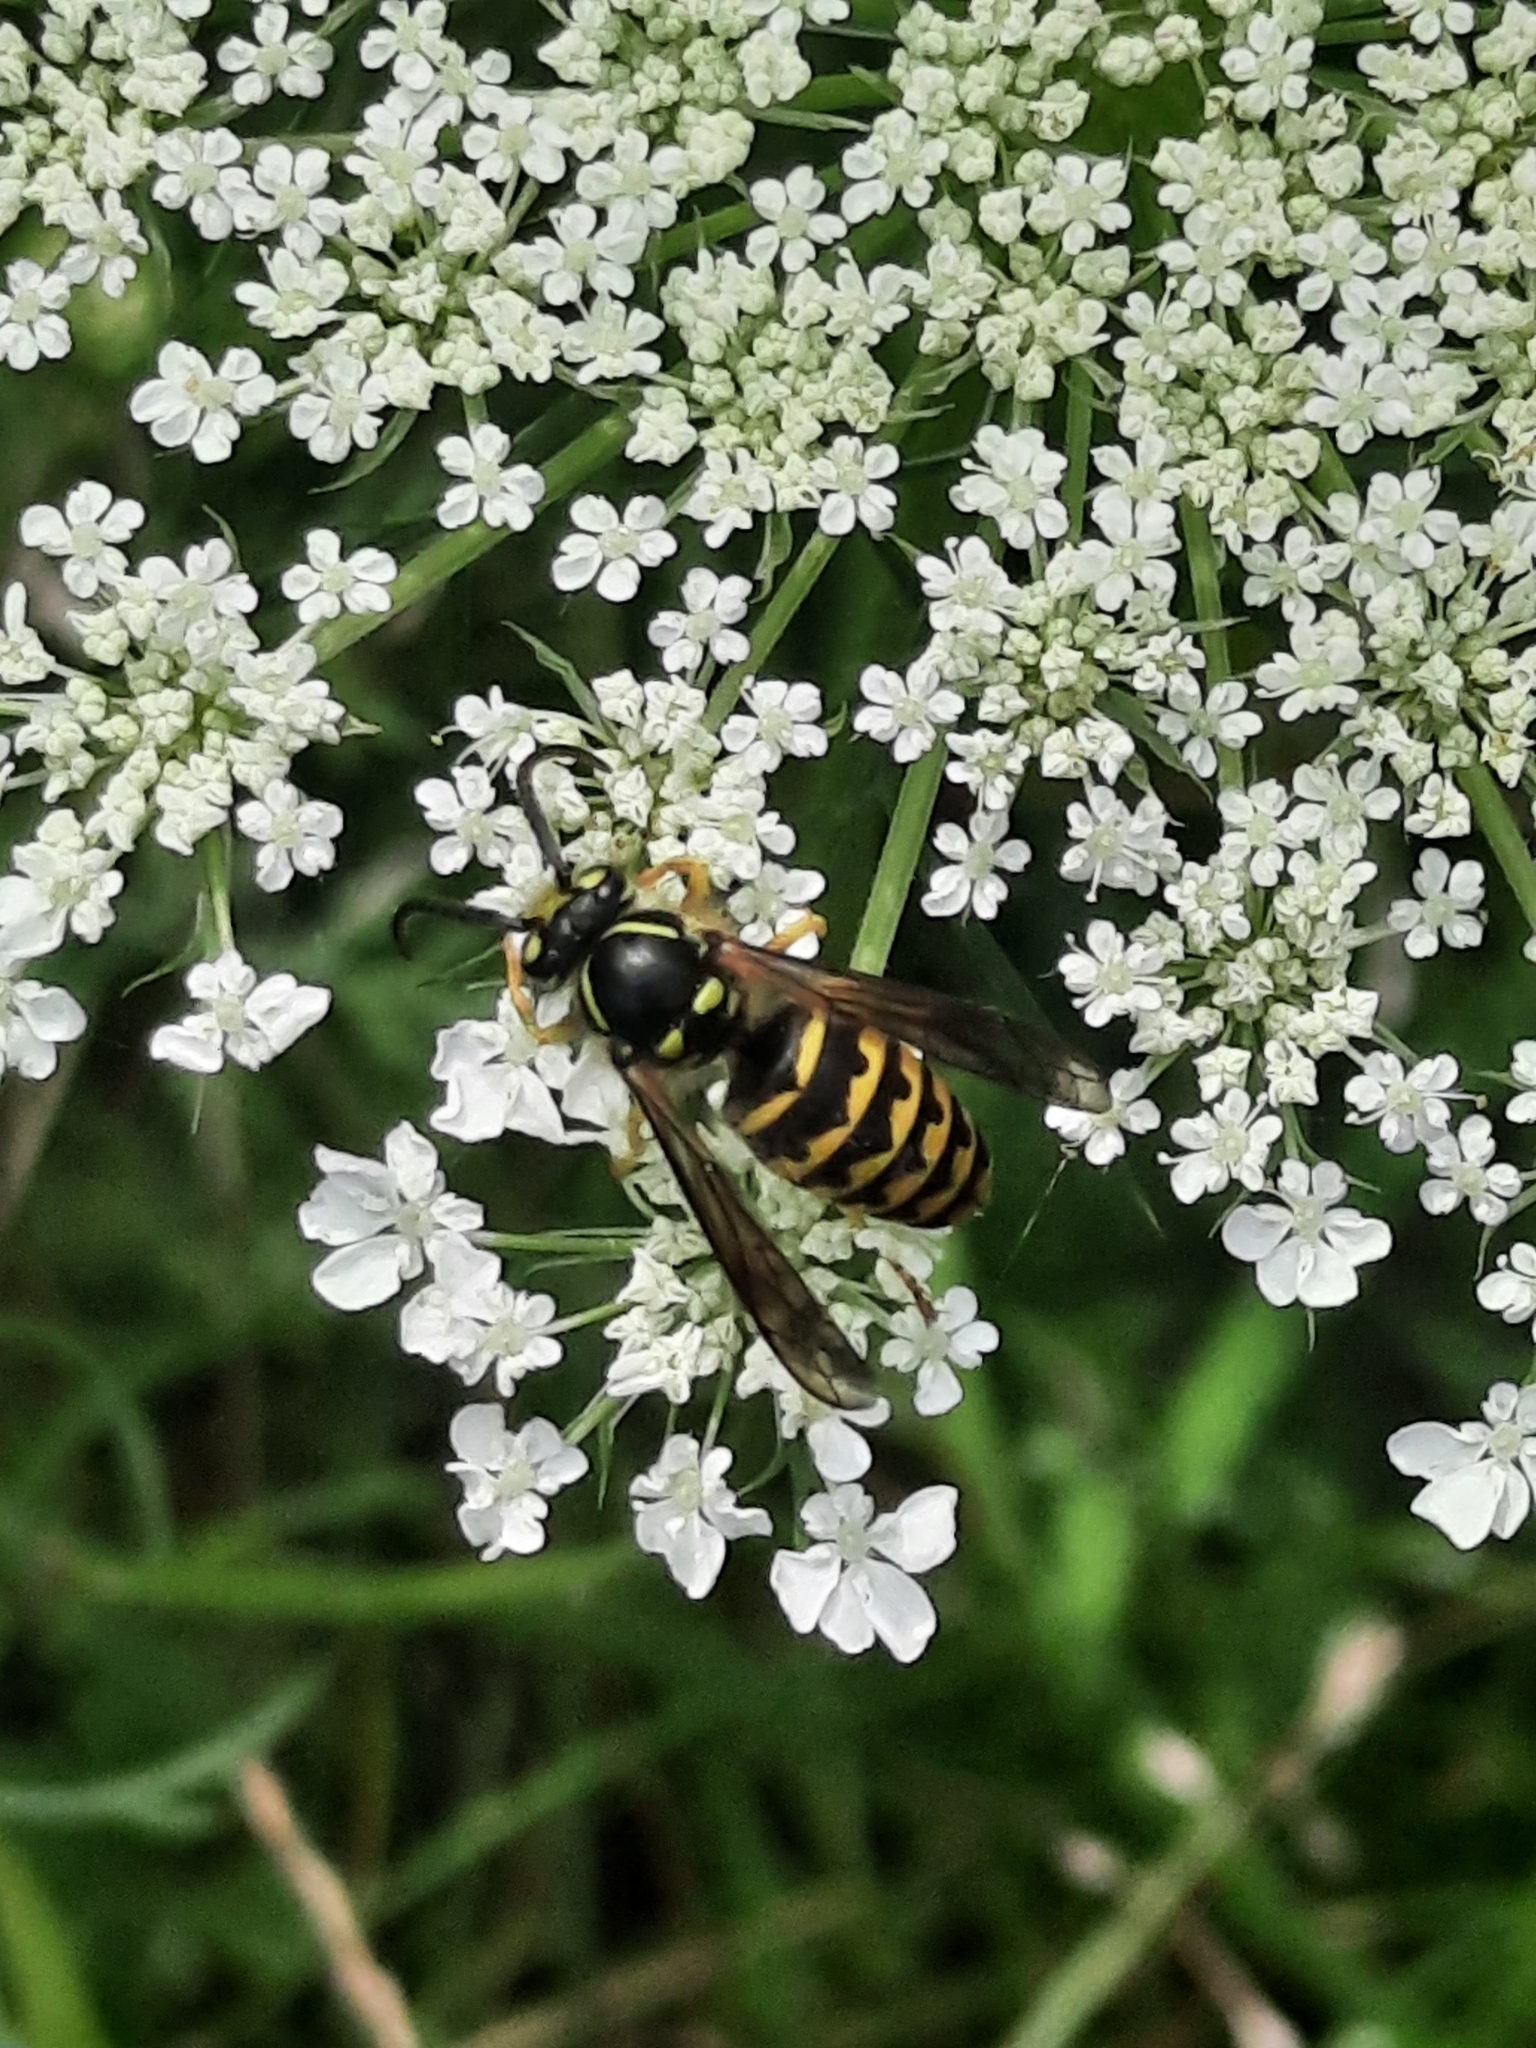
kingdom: Animalia
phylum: Arthropoda
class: Insecta
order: Hymenoptera
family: Vespidae
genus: Dolichovespula
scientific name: Dolichovespula arenaria
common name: Aerial yellowjacket
